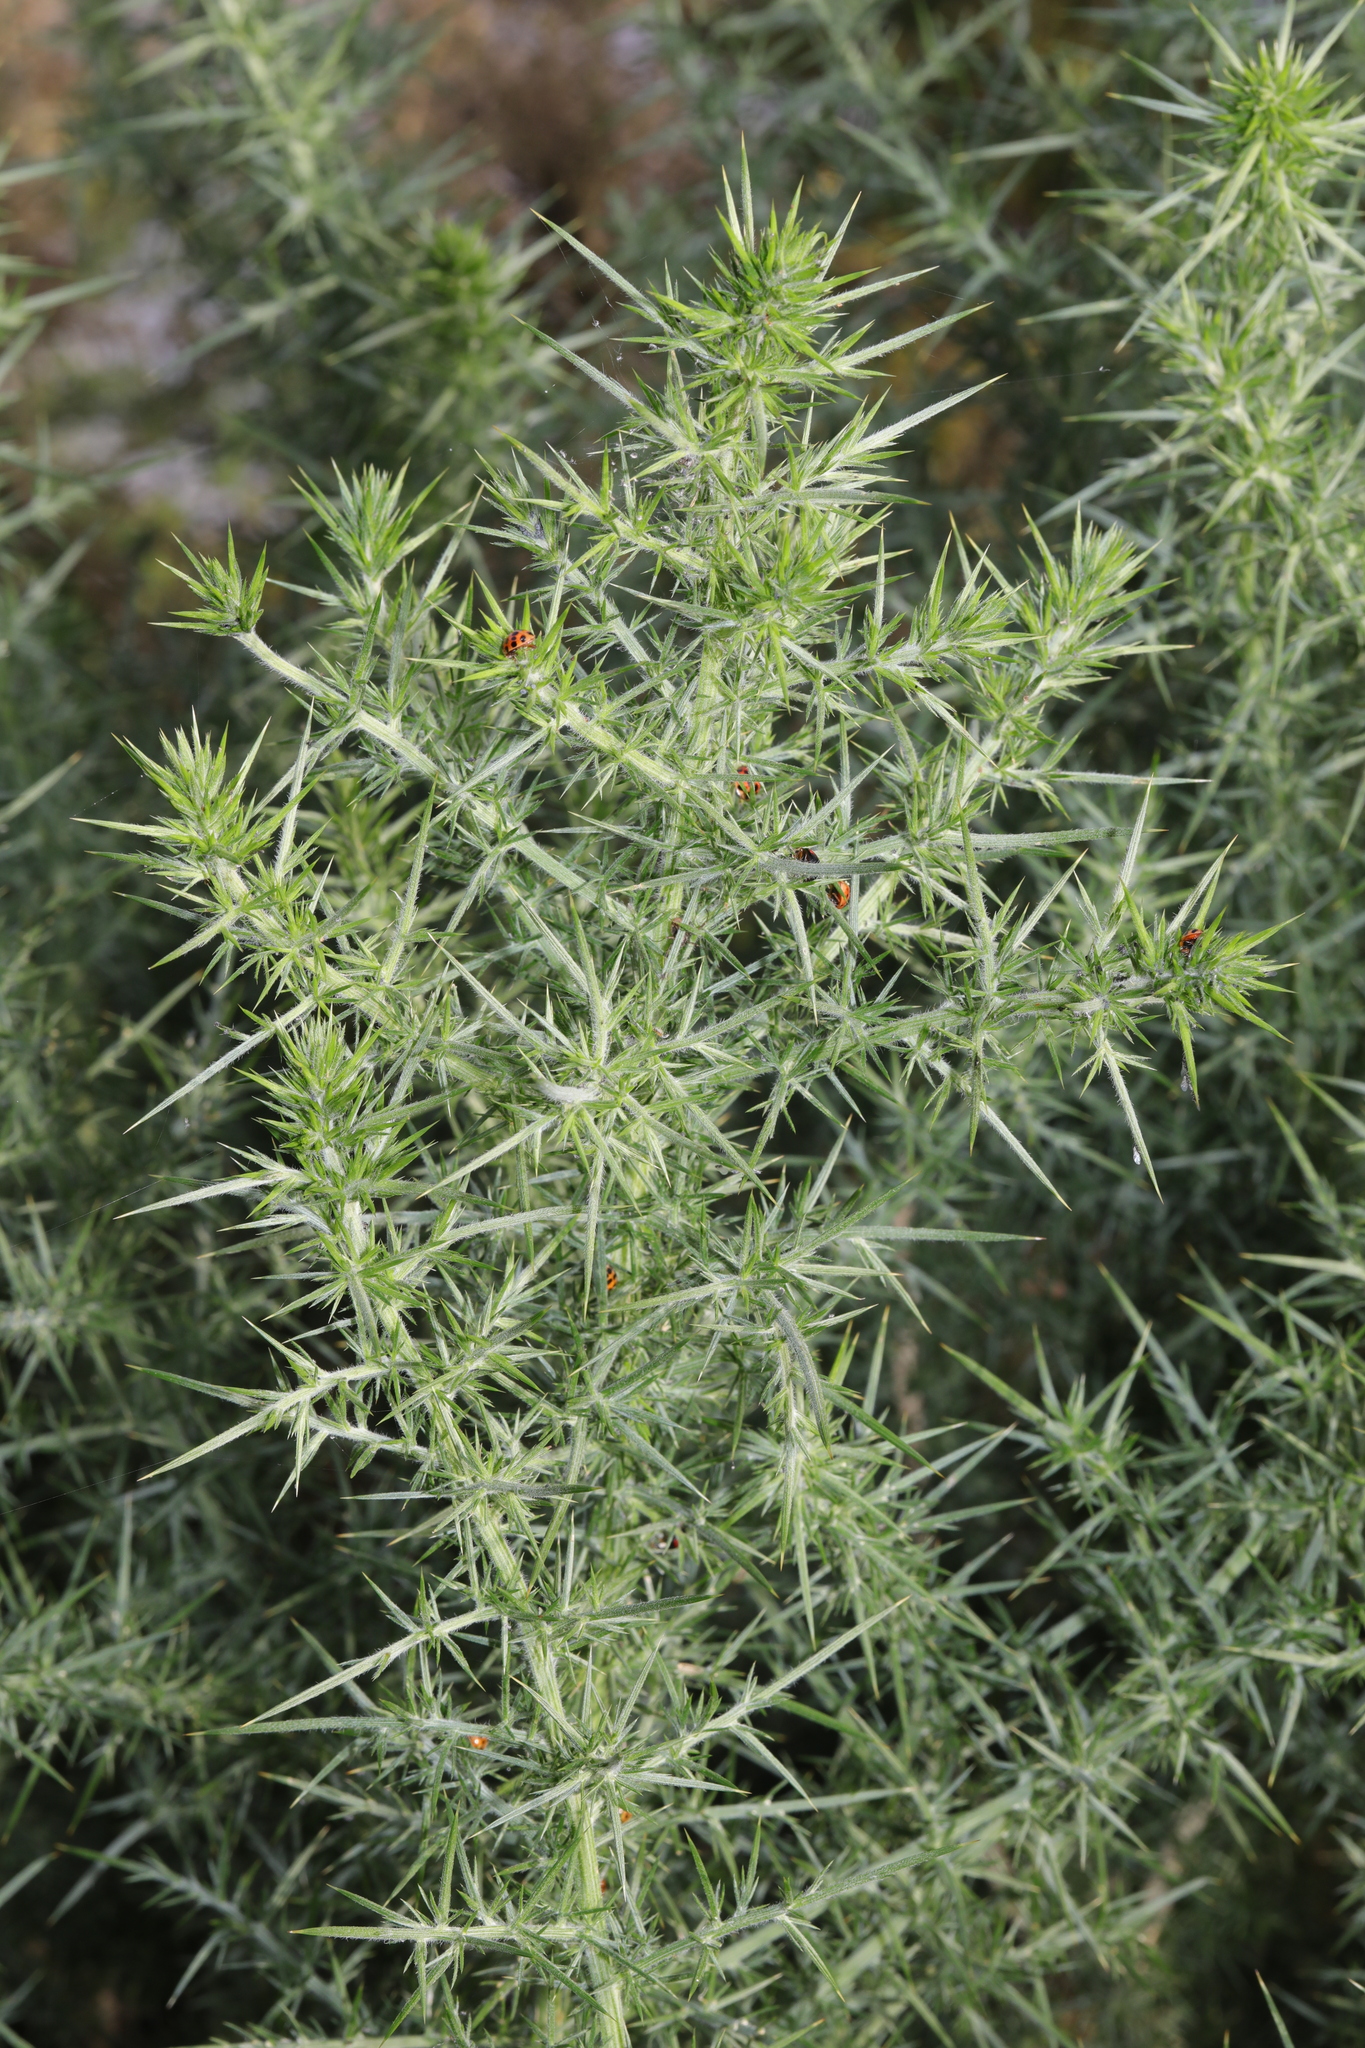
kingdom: Plantae
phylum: Tracheophyta
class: Magnoliopsida
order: Fabales
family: Fabaceae
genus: Ulex
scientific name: Ulex europaeus
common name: Common gorse
